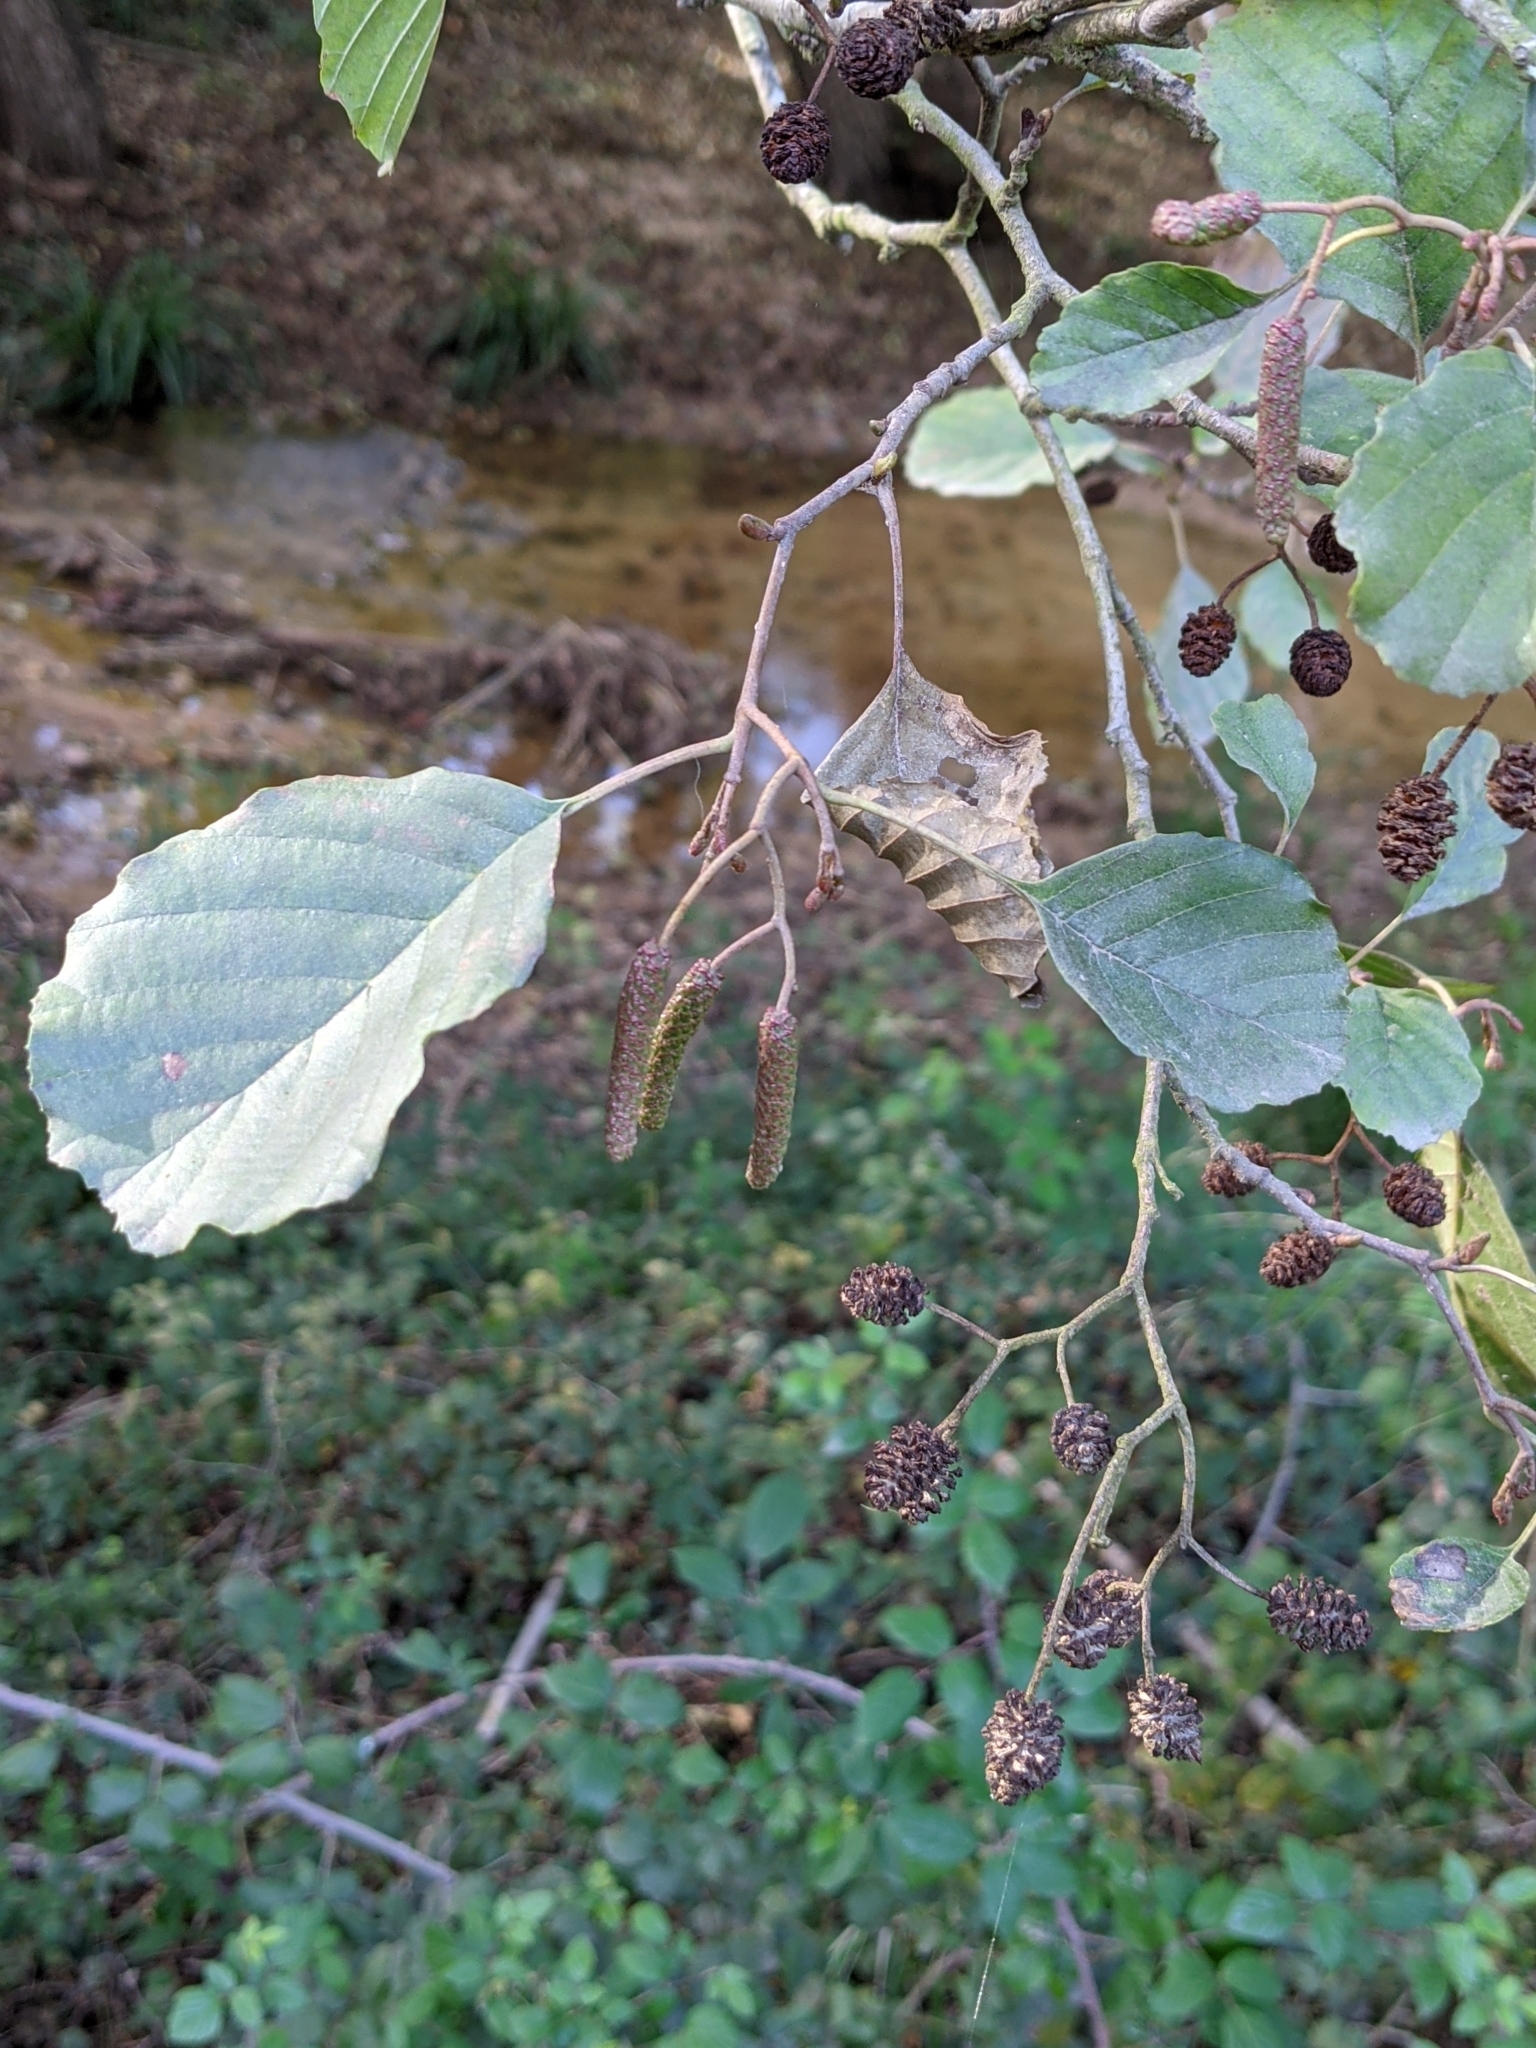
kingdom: Plantae
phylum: Tracheophyta
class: Magnoliopsida
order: Fagales
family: Betulaceae
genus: Alnus
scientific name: Alnus glutinosa
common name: Black alder
